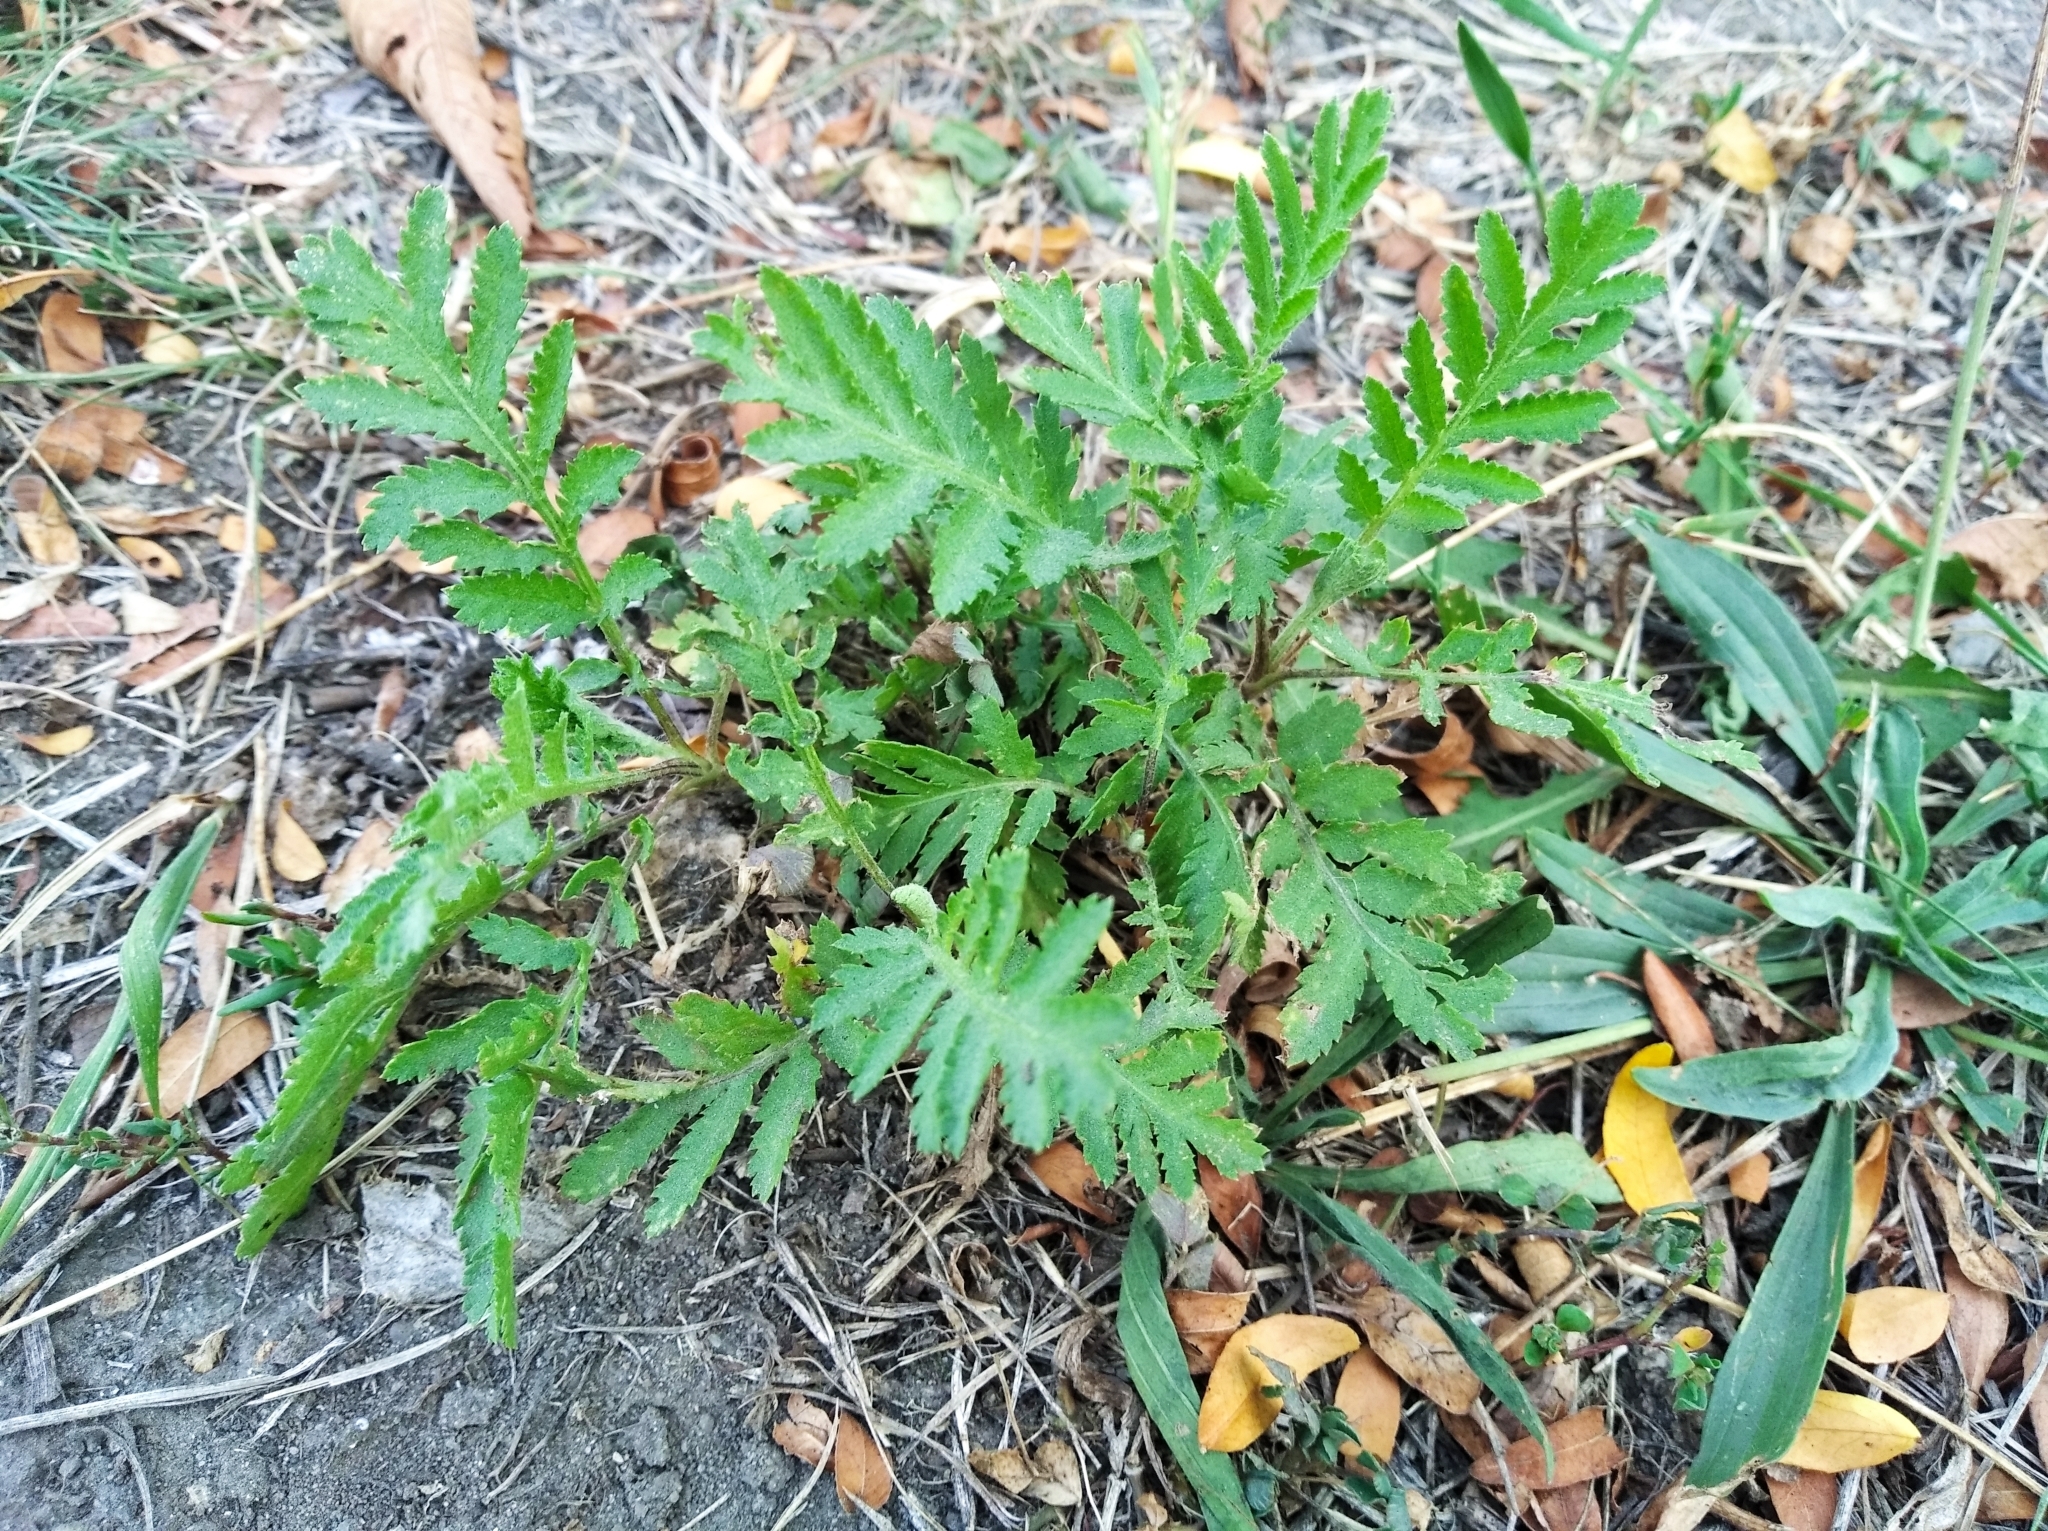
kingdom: Plantae
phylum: Tracheophyta
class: Magnoliopsida
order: Asterales
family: Asteraceae
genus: Tanacetum
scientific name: Tanacetum vulgare
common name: Common tansy
